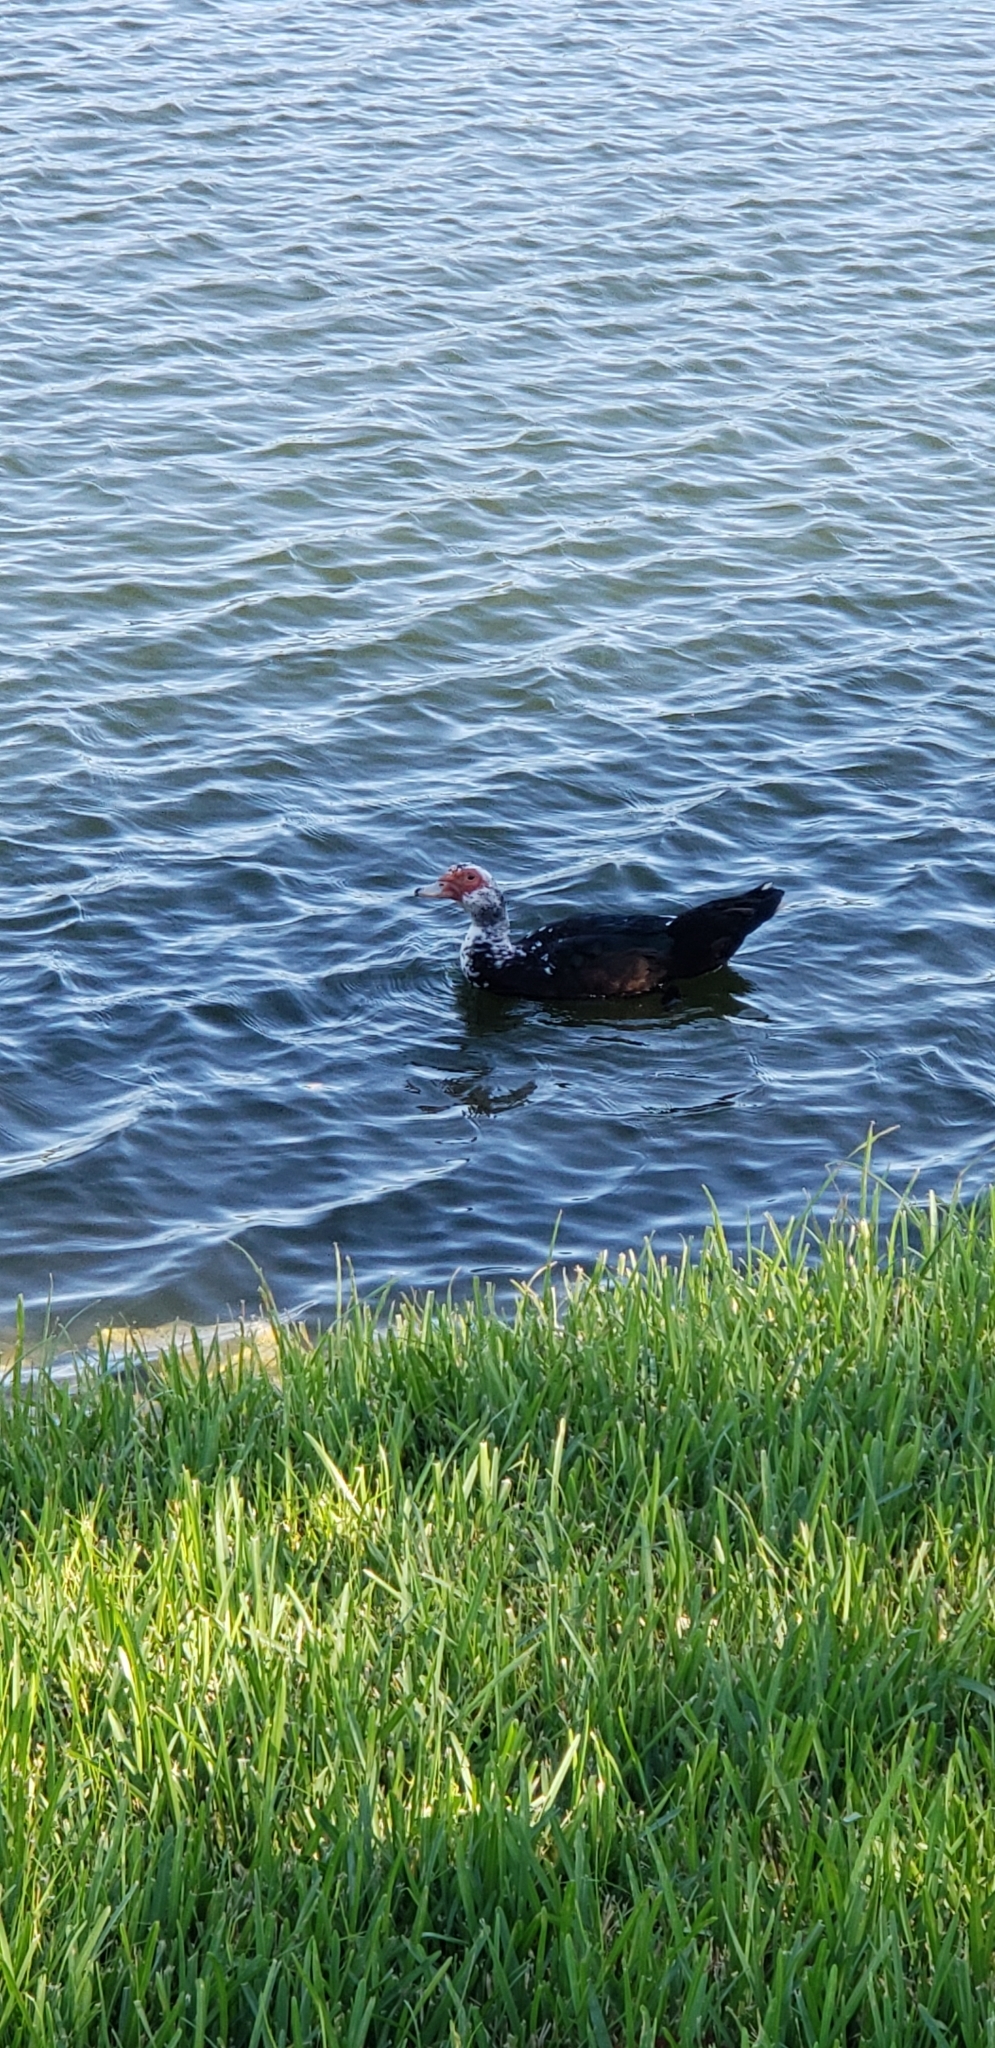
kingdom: Animalia
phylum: Chordata
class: Aves
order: Anseriformes
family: Anatidae
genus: Cairina
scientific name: Cairina moschata
